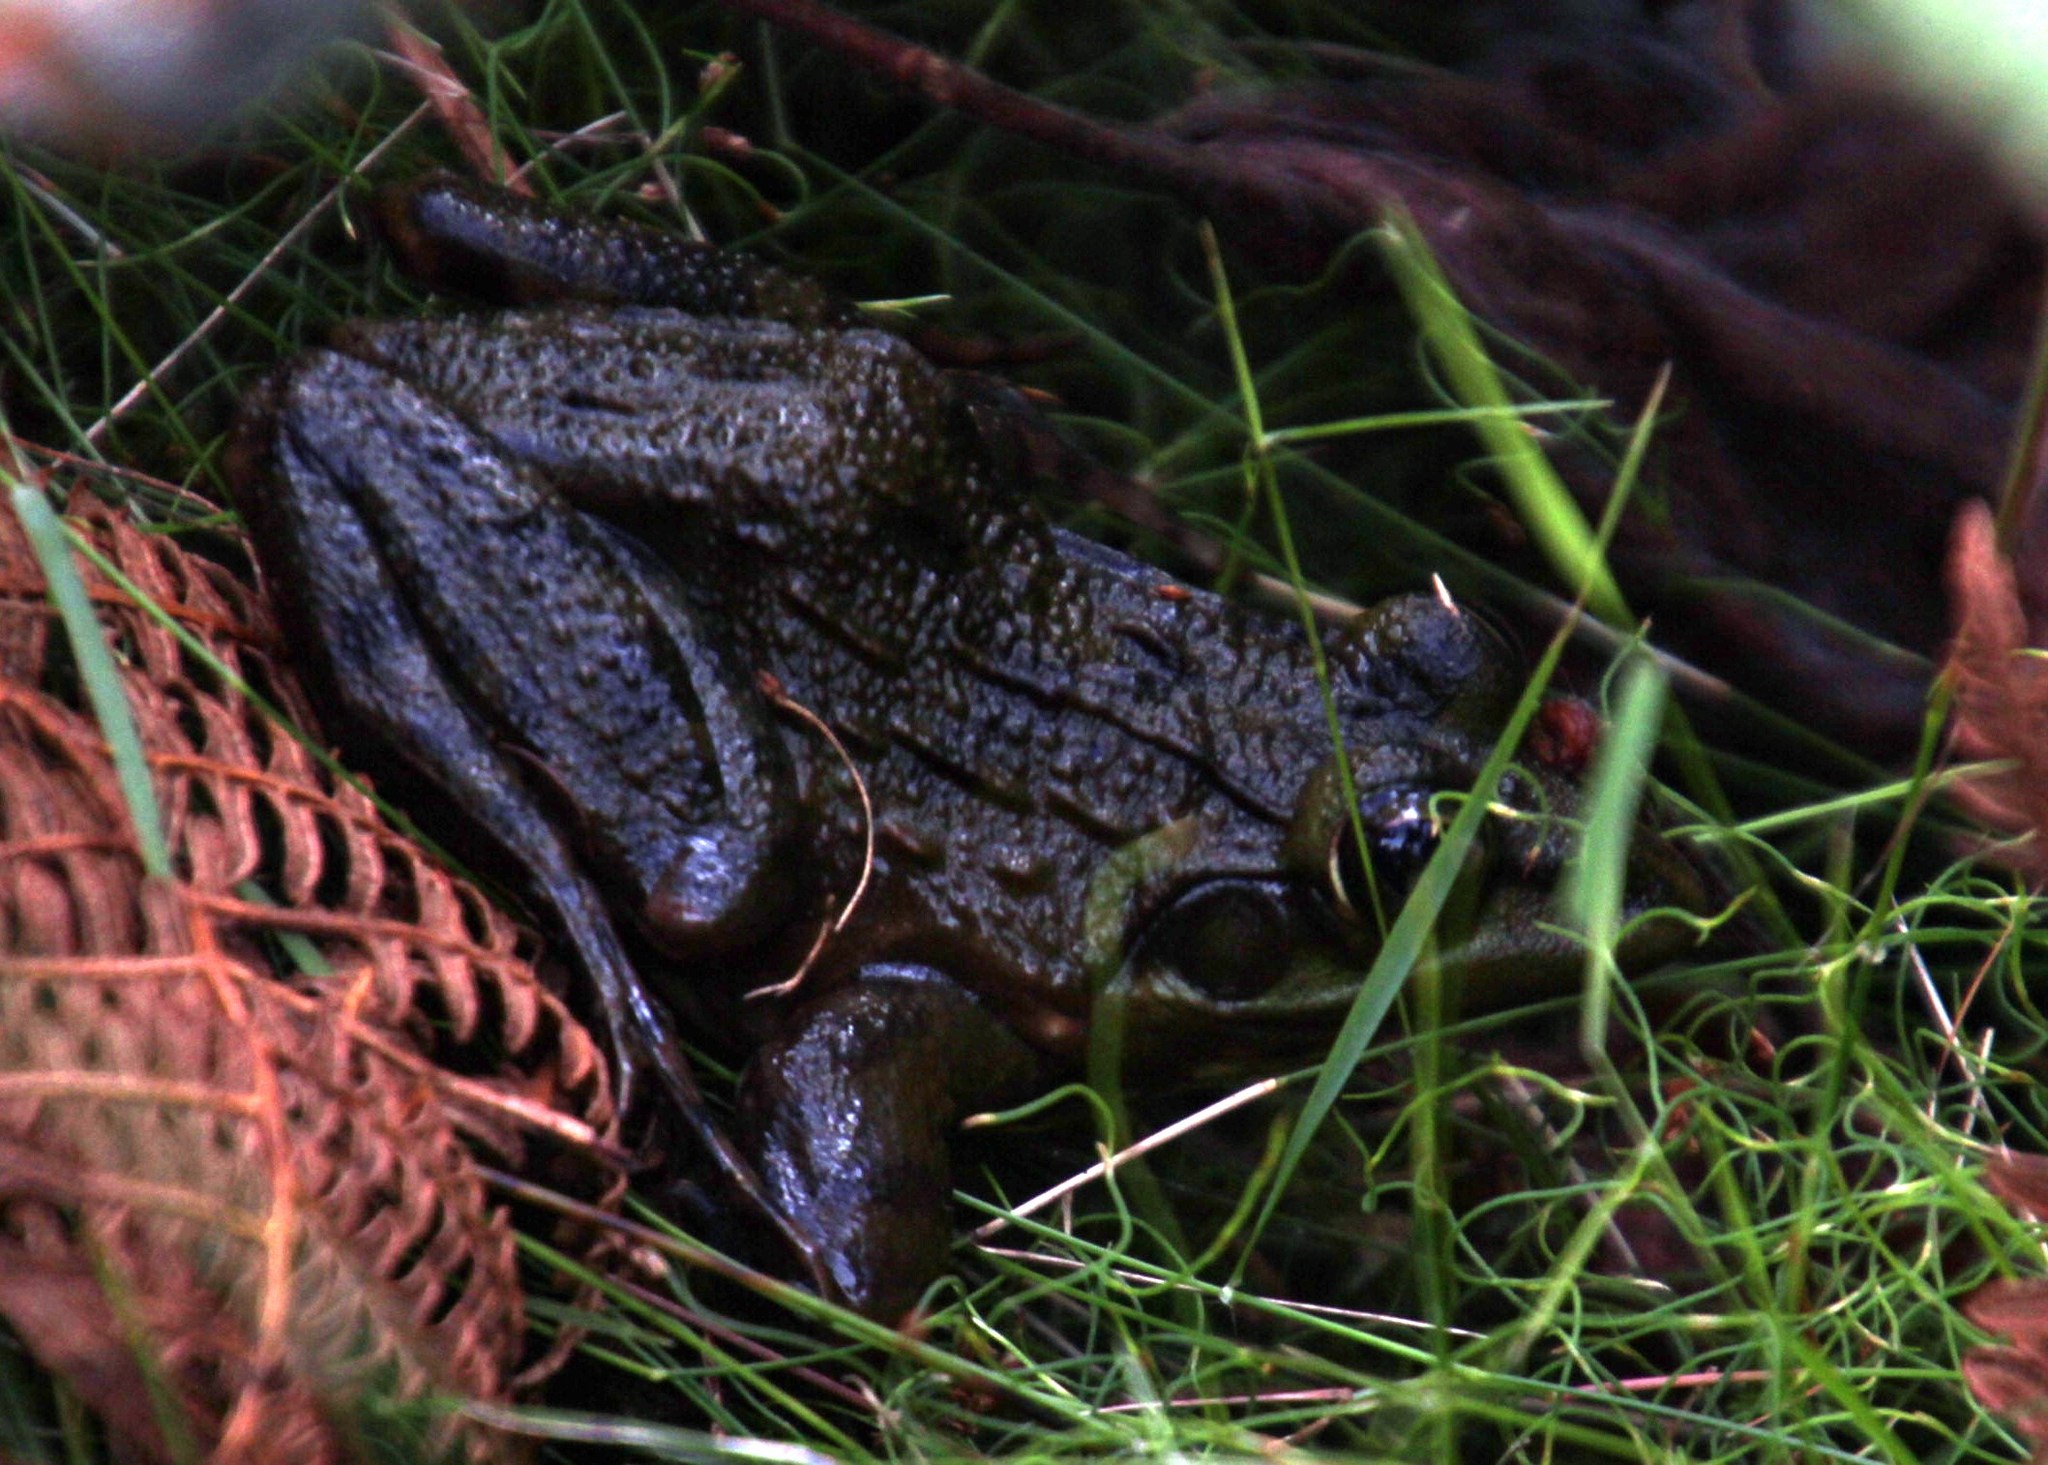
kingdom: Animalia
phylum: Chordata
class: Amphibia
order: Anura
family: Pyxicephalidae
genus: Amietia
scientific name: Amietia fuscigula
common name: Cape rana
